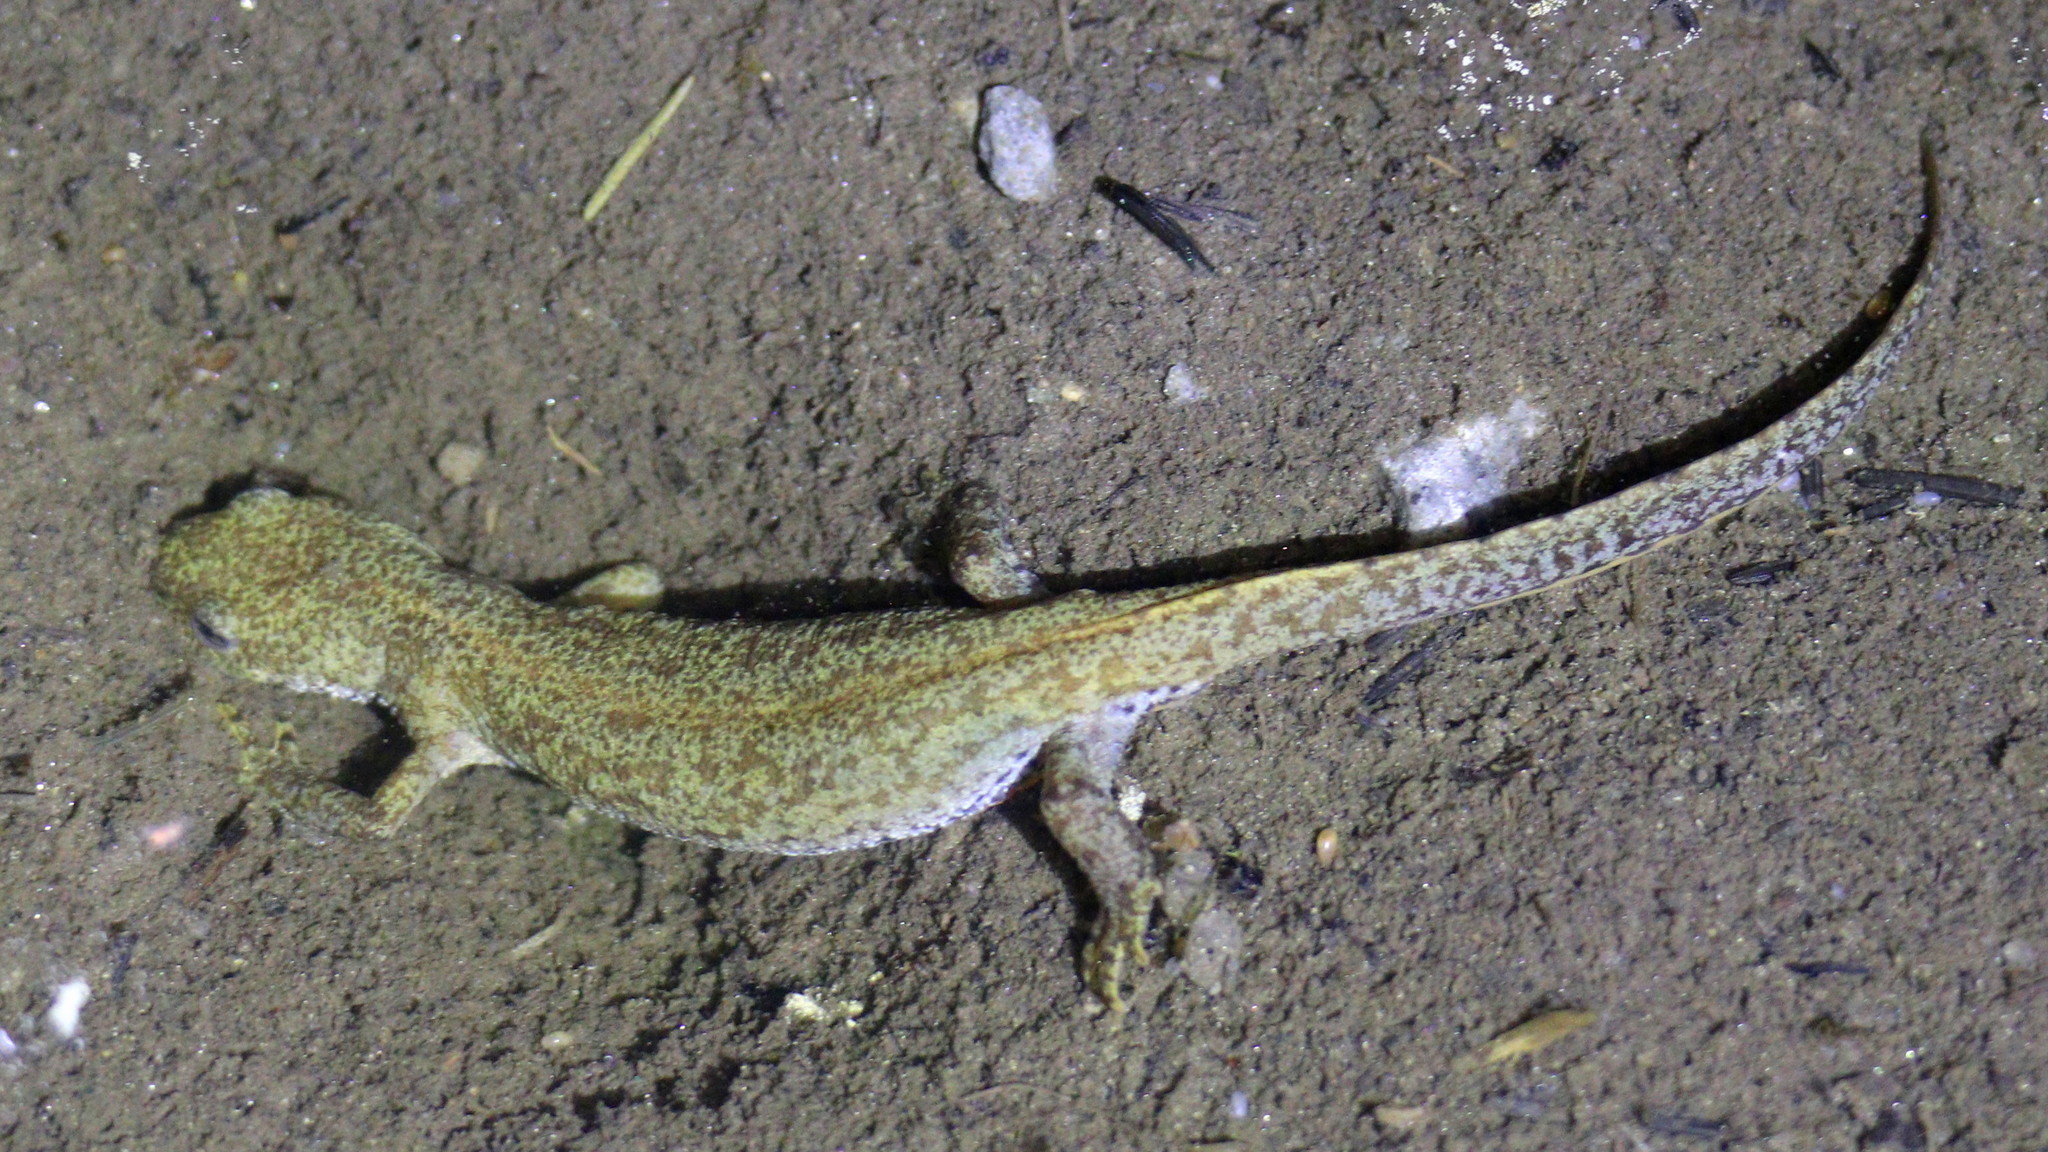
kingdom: Animalia
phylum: Chordata
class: Amphibia
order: Caudata
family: Salamandridae
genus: Ichthyosaura
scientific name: Ichthyosaura alpestris
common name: Alpine newt
